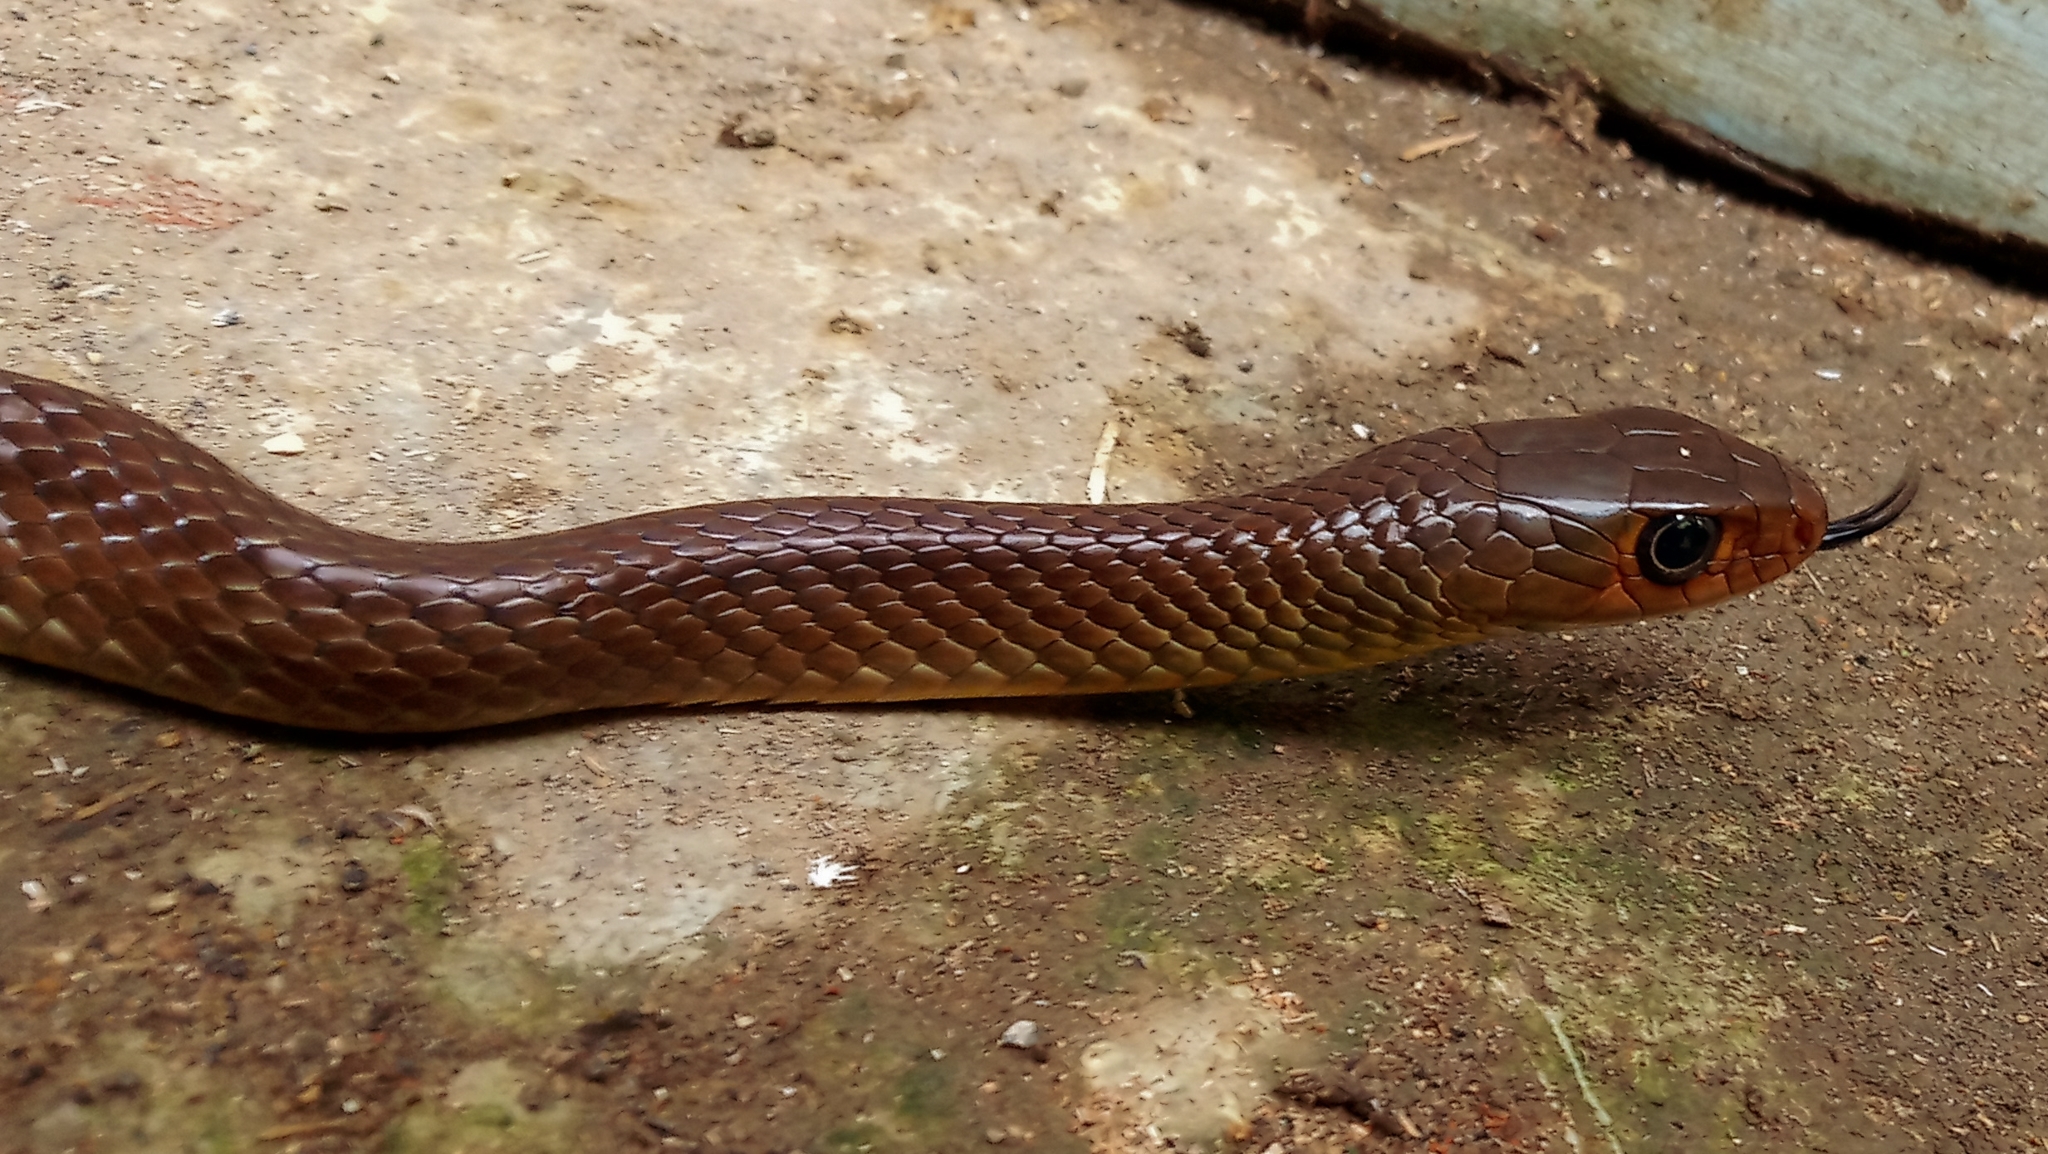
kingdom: Animalia
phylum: Chordata
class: Squamata
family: Colubridae
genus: Ptyas
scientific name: Ptyas korros
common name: Indo-chinese rat snake
